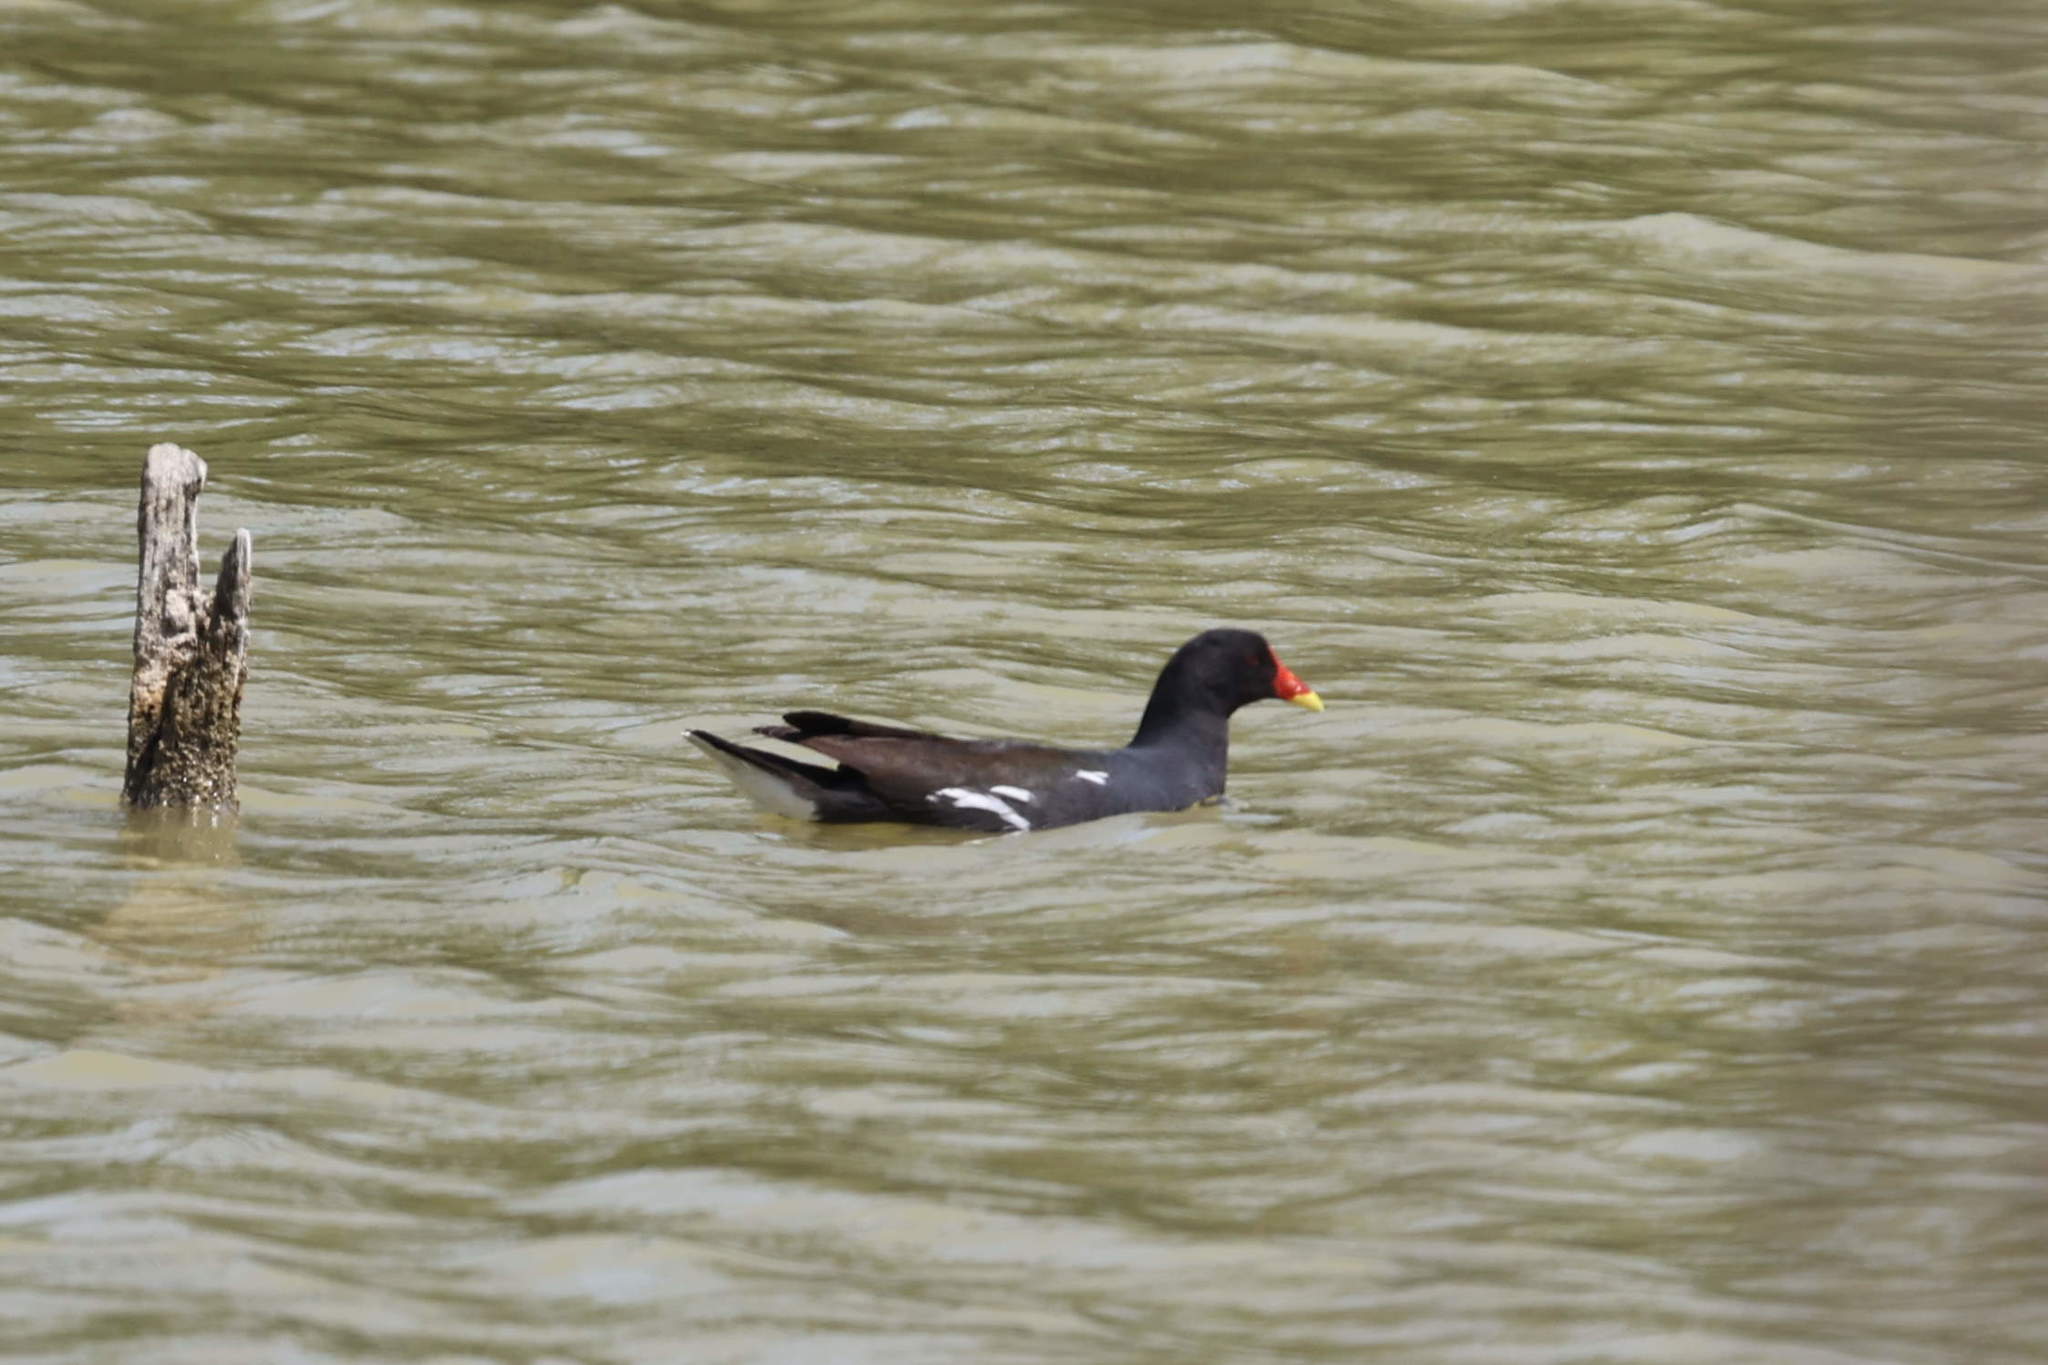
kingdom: Animalia
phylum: Chordata
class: Aves
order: Gruiformes
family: Rallidae
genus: Gallinula
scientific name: Gallinula chloropus
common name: Common moorhen
